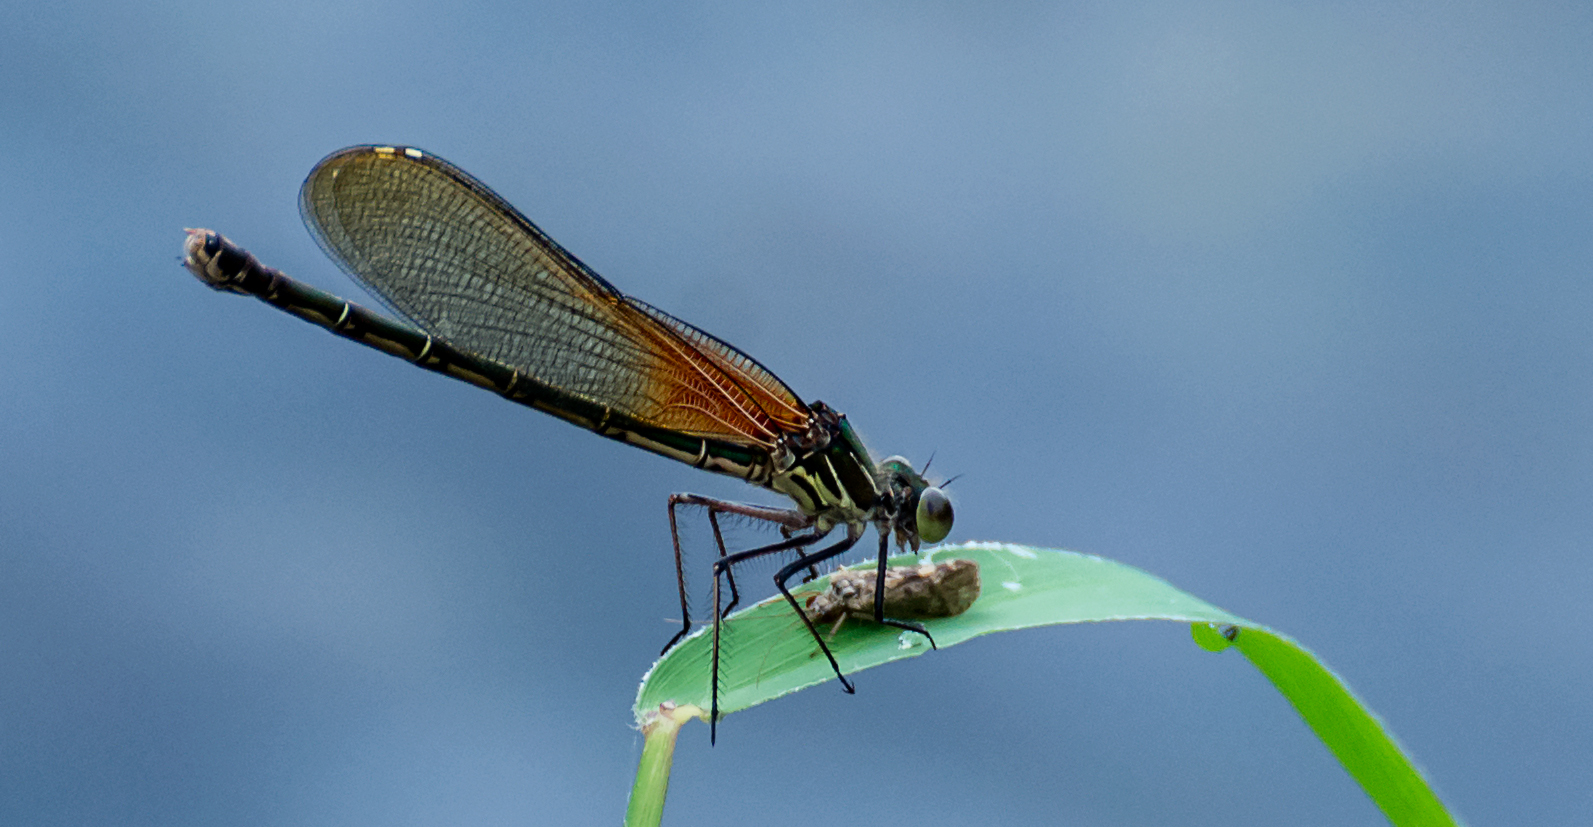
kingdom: Animalia
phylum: Arthropoda
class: Insecta
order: Odonata
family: Calopterygidae
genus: Hetaerina
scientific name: Hetaerina americana
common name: American rubyspot
